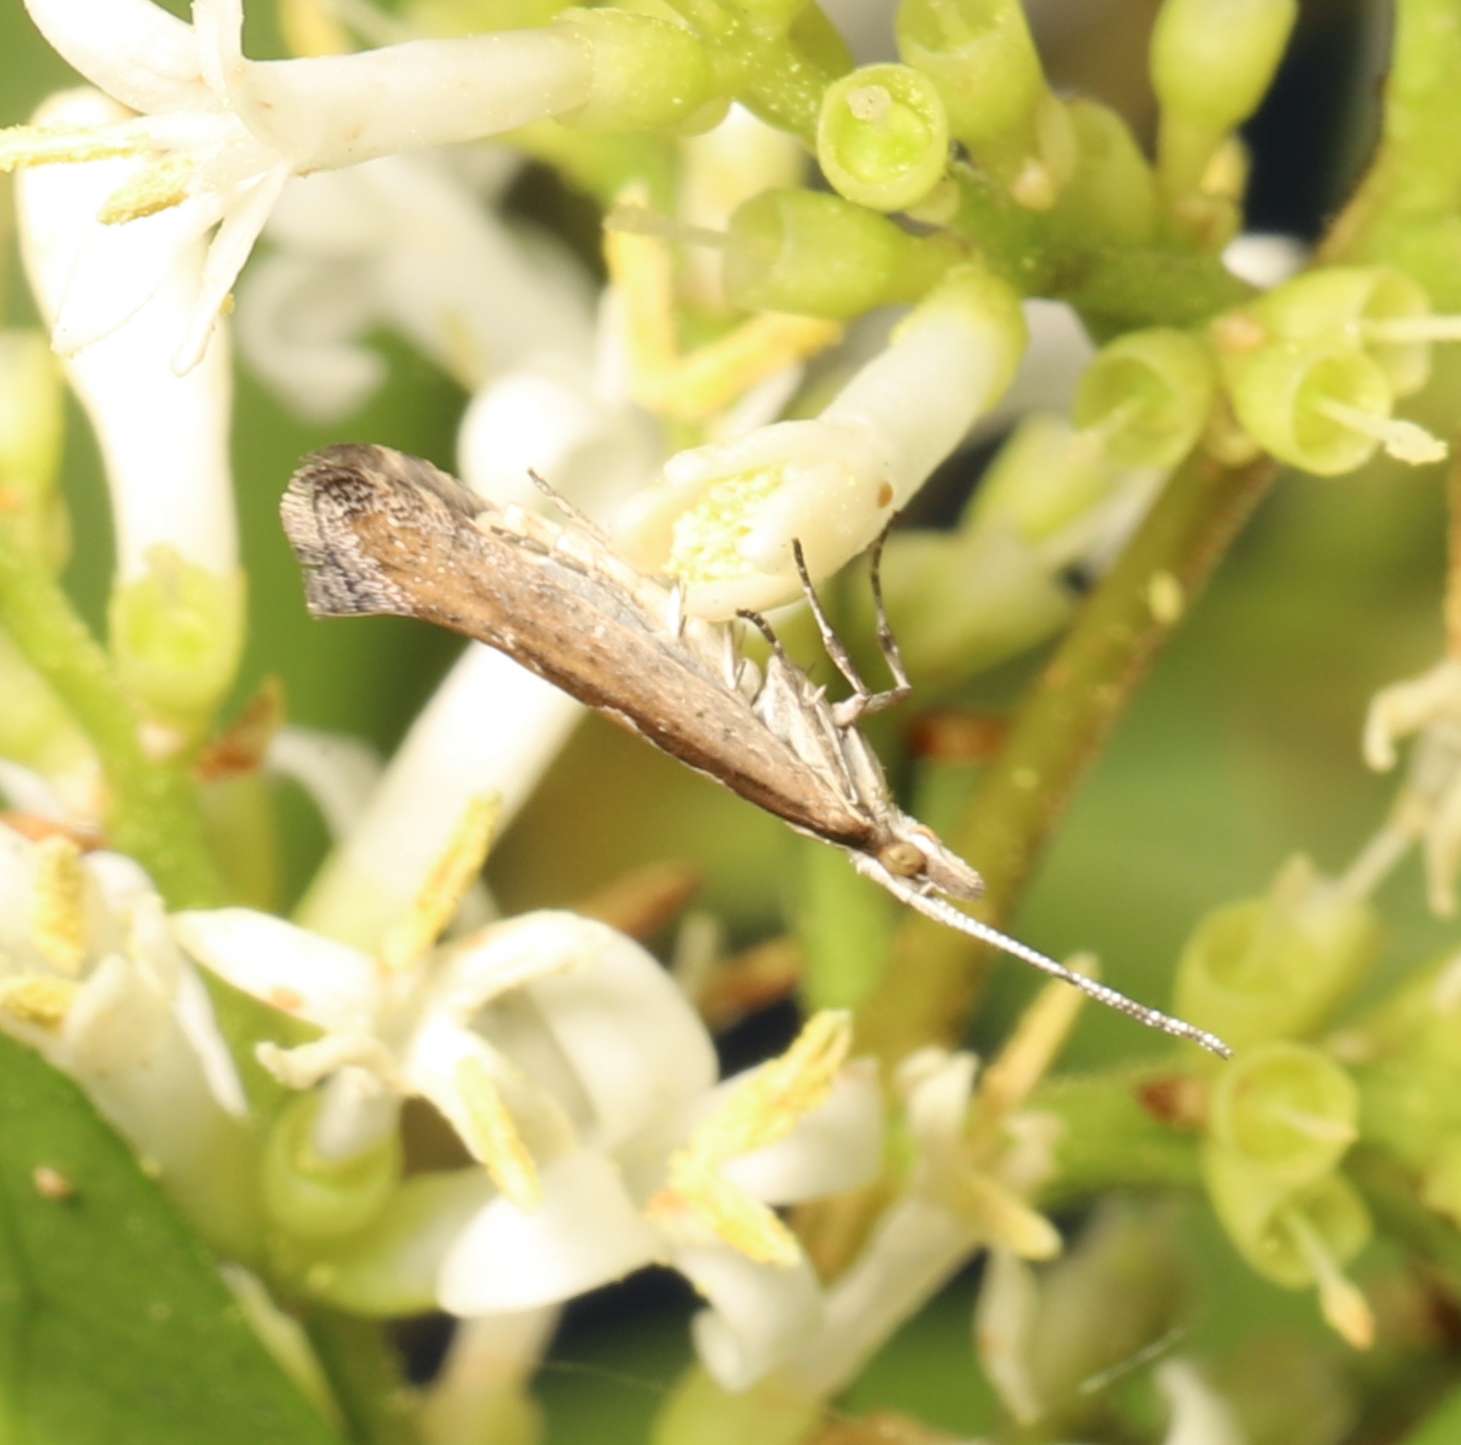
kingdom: Animalia
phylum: Arthropoda
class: Insecta
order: Lepidoptera
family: Plutellidae
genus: Plutella
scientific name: Plutella xylostella
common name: Diamond-back moth
